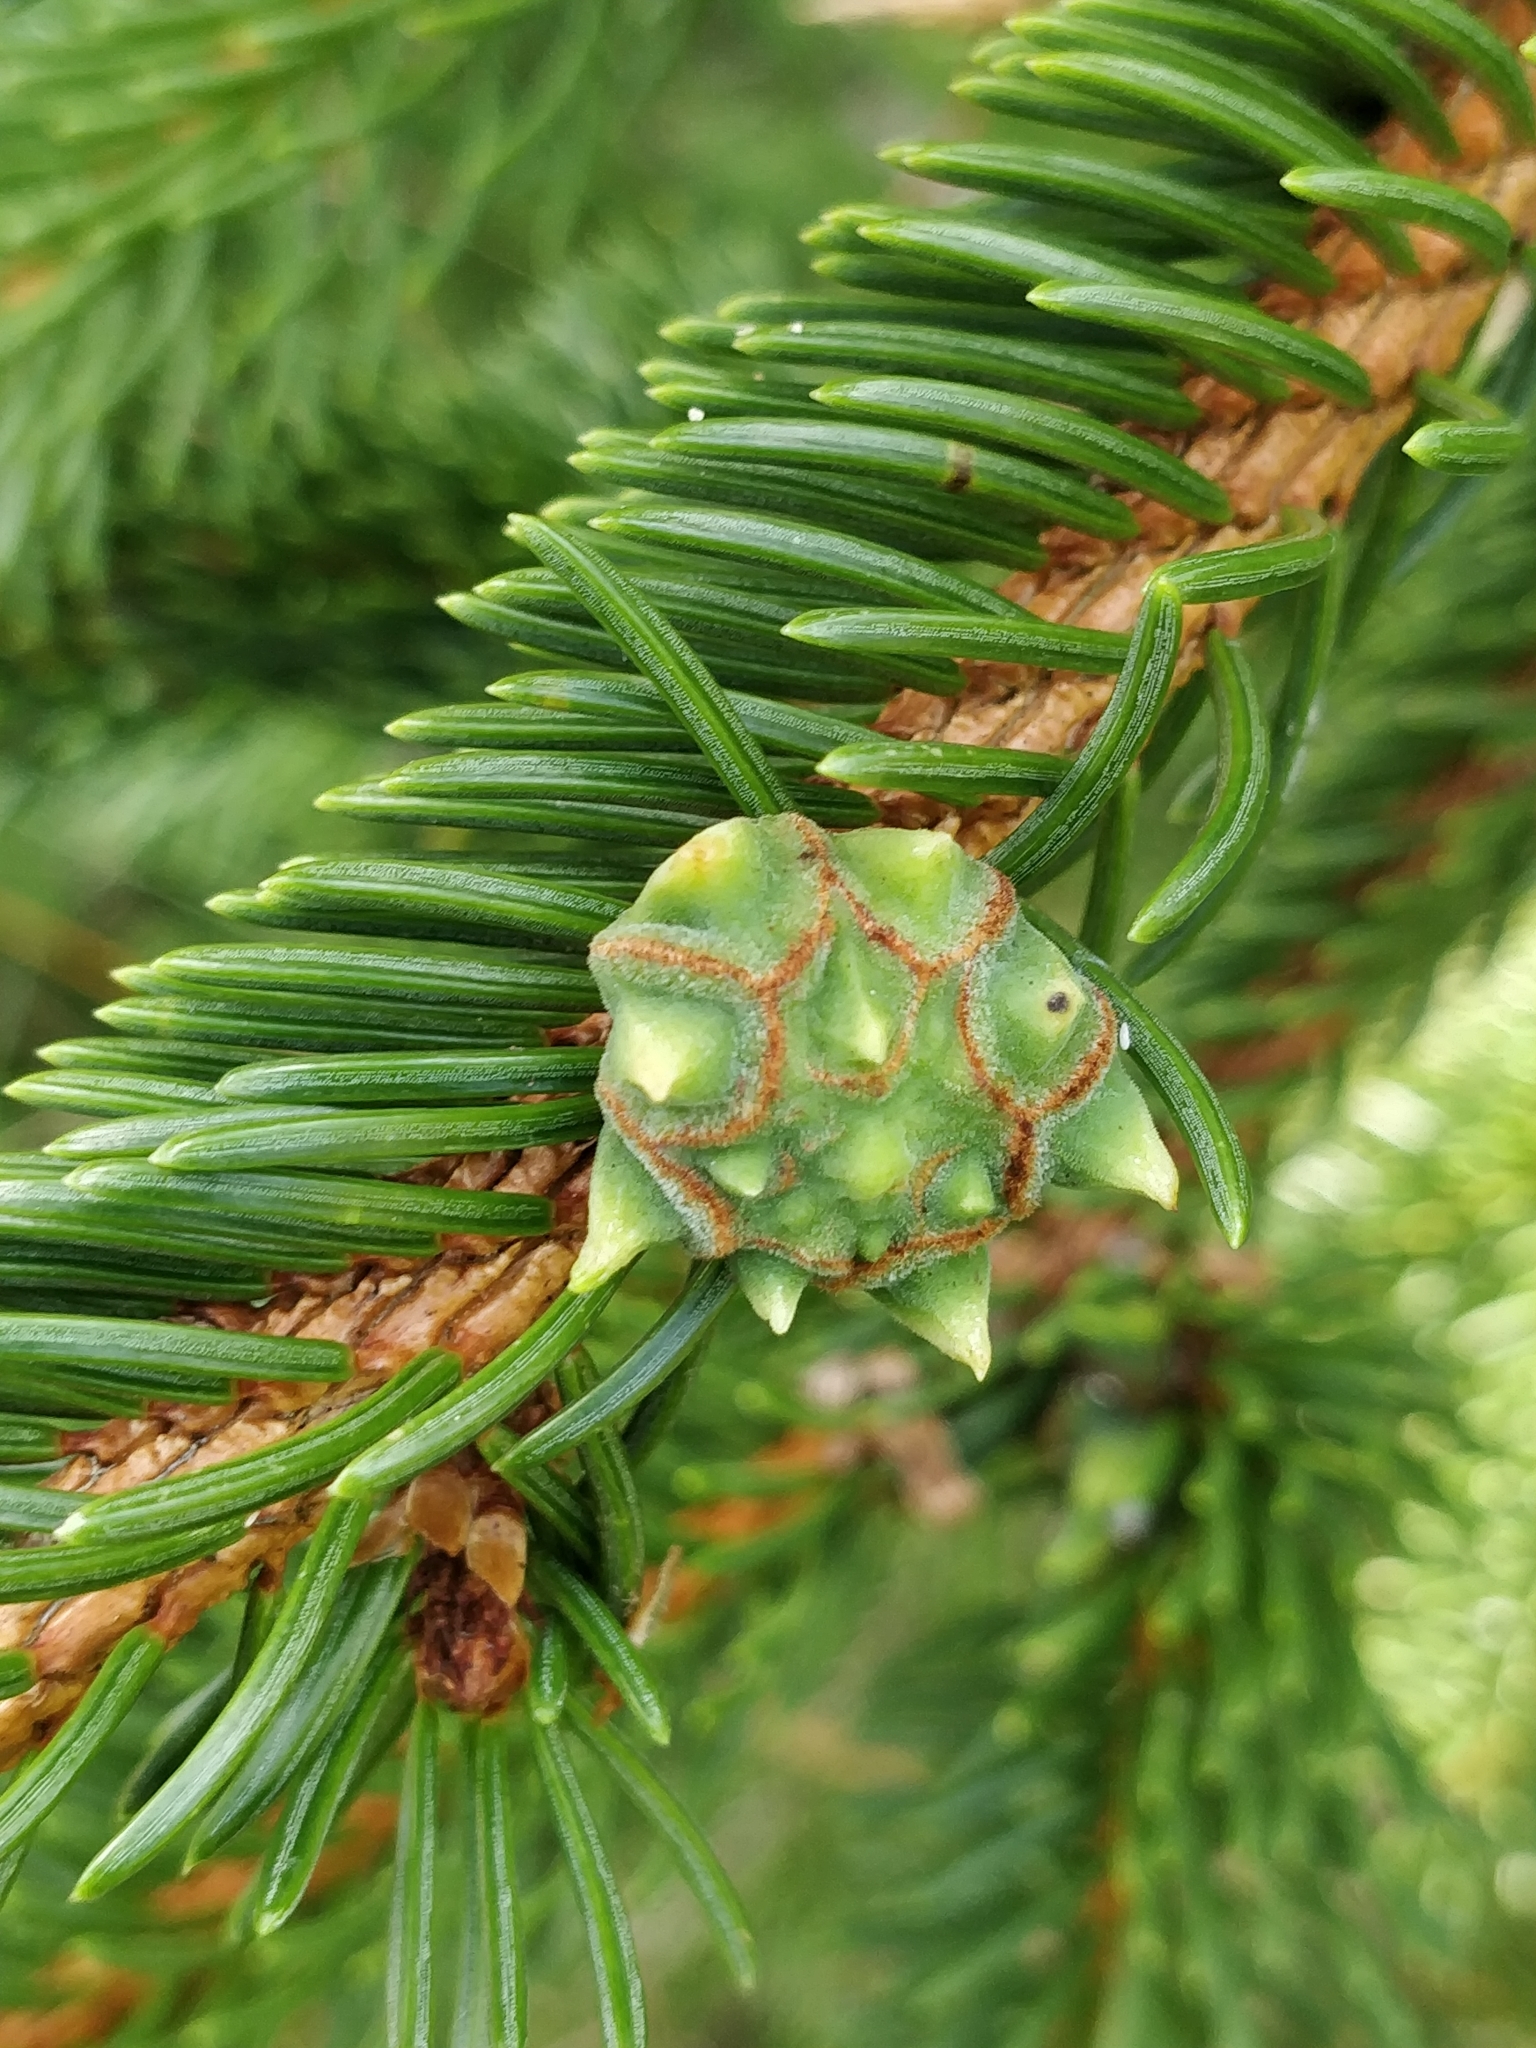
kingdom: Animalia
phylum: Arthropoda
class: Insecta
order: Hemiptera
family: Adelgidae
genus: Adelges
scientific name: Adelges abietis
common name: Eastern spruce gall adelgid
